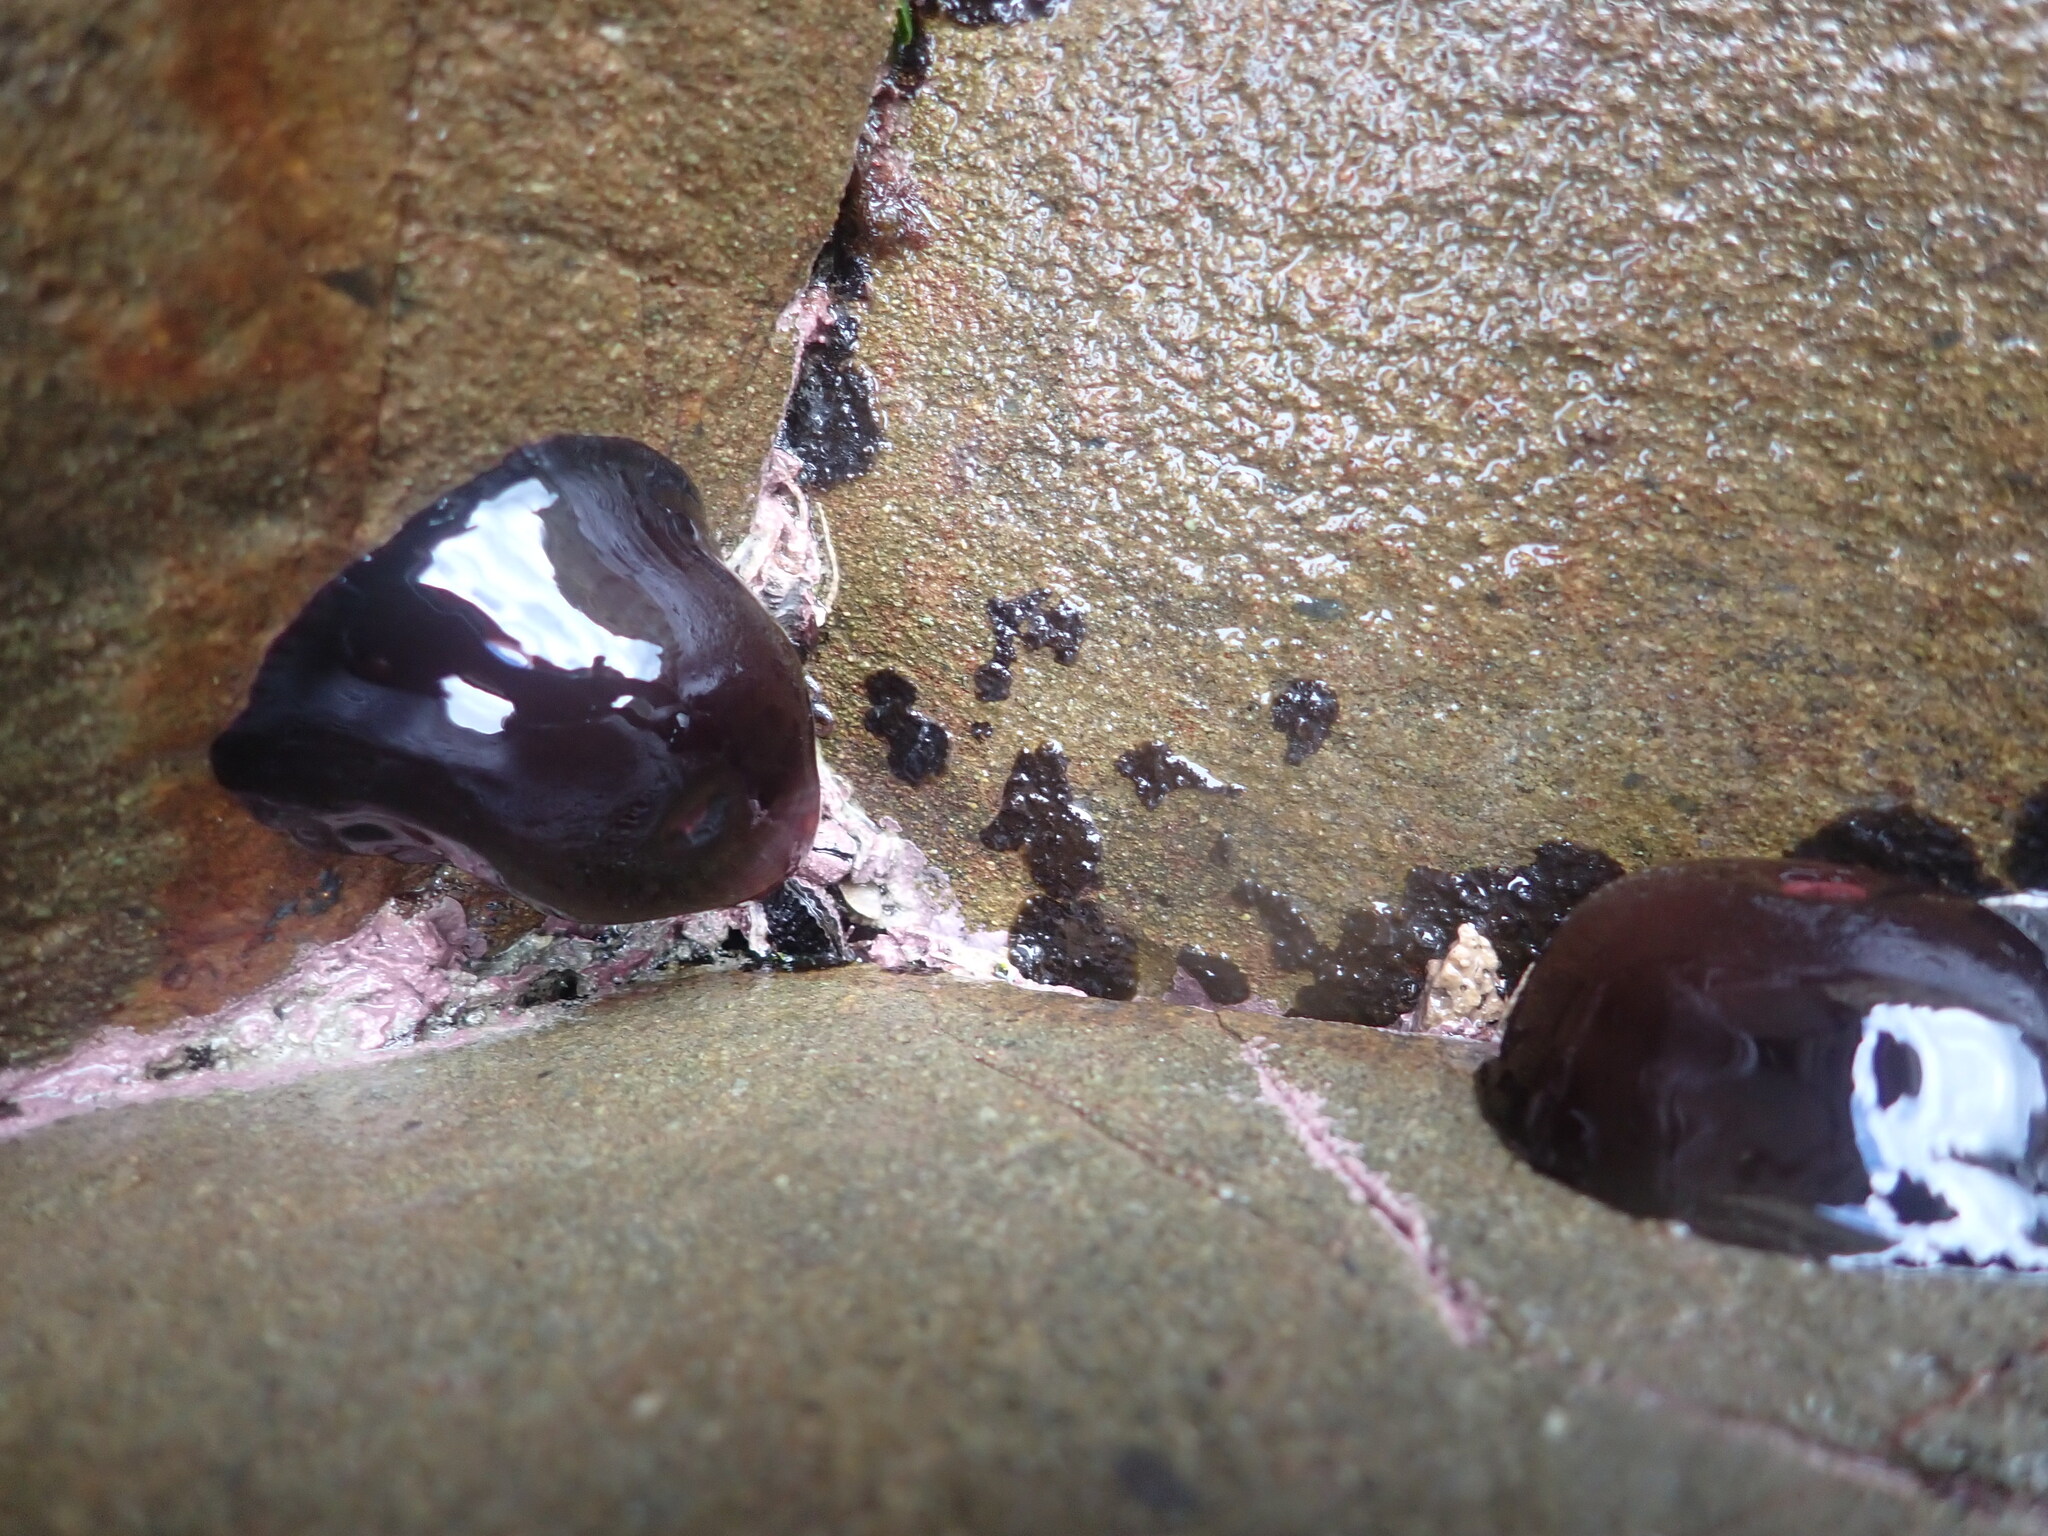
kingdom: Animalia
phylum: Cnidaria
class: Anthozoa
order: Actiniaria
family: Actiniidae
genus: Actinia
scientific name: Actinia tenebrosa
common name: Waratah anemone
